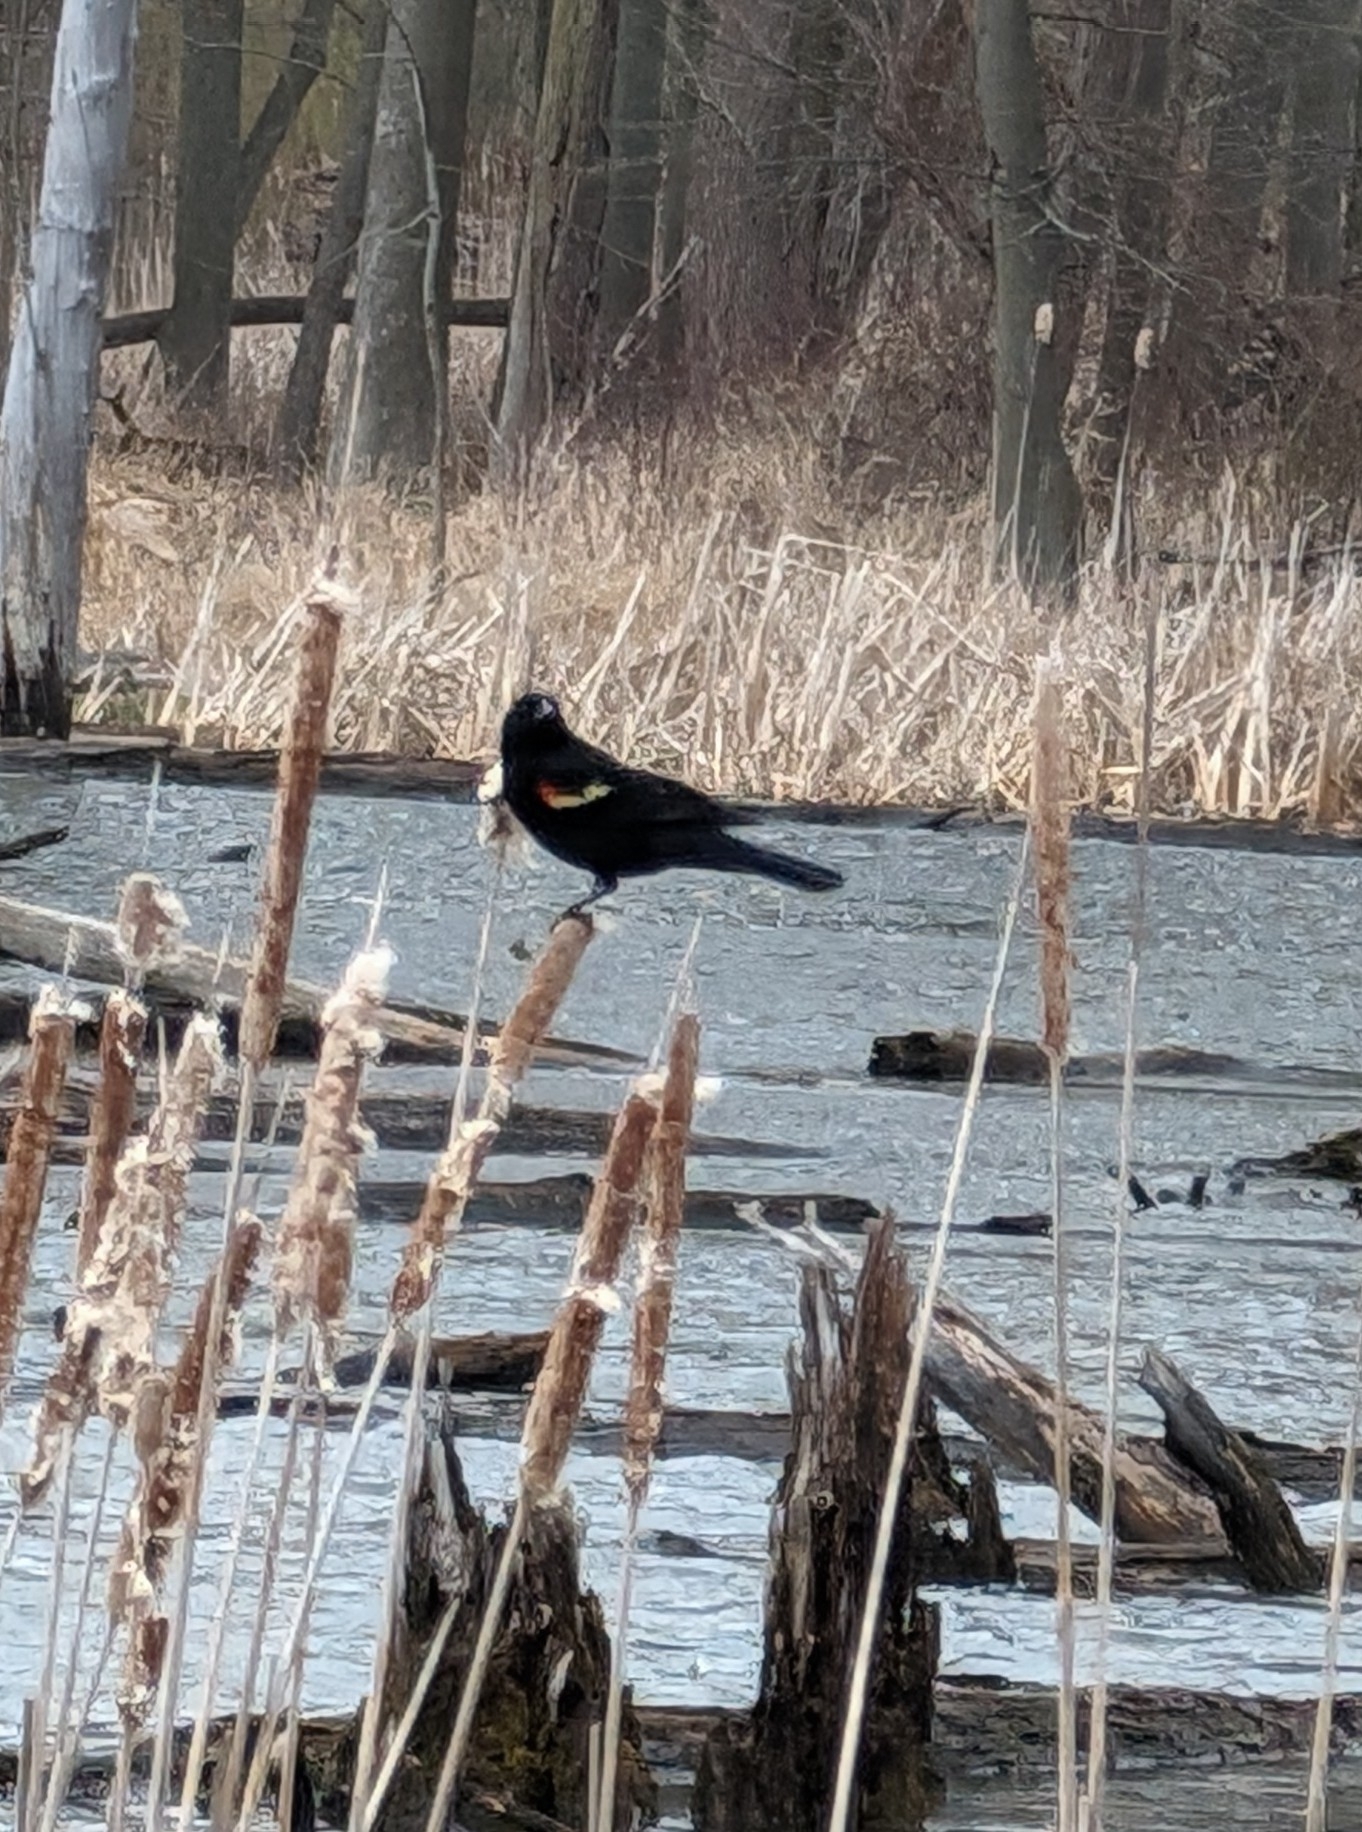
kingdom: Animalia
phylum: Chordata
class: Aves
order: Passeriformes
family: Icteridae
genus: Agelaius
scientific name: Agelaius phoeniceus
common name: Red-winged blackbird
